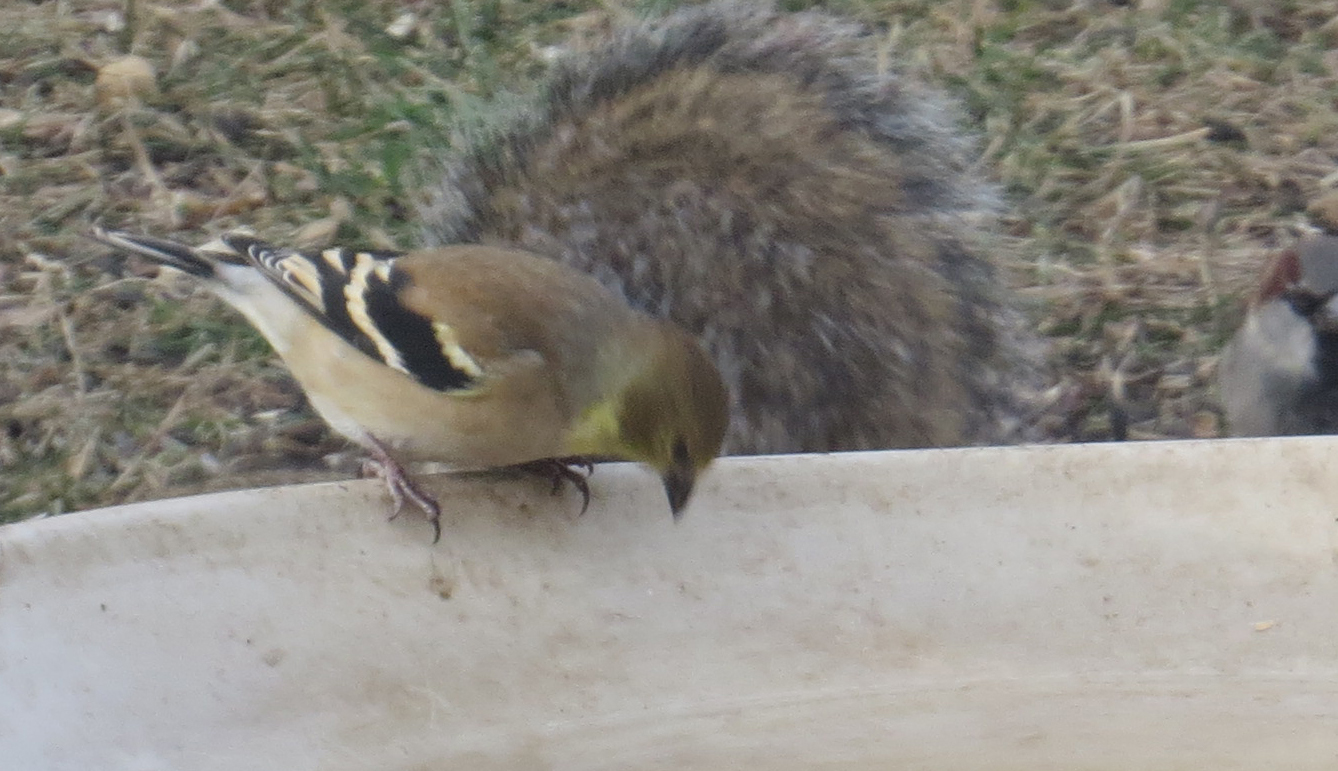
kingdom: Animalia
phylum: Chordata
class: Aves
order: Passeriformes
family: Fringillidae
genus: Spinus
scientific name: Spinus tristis
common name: American goldfinch
